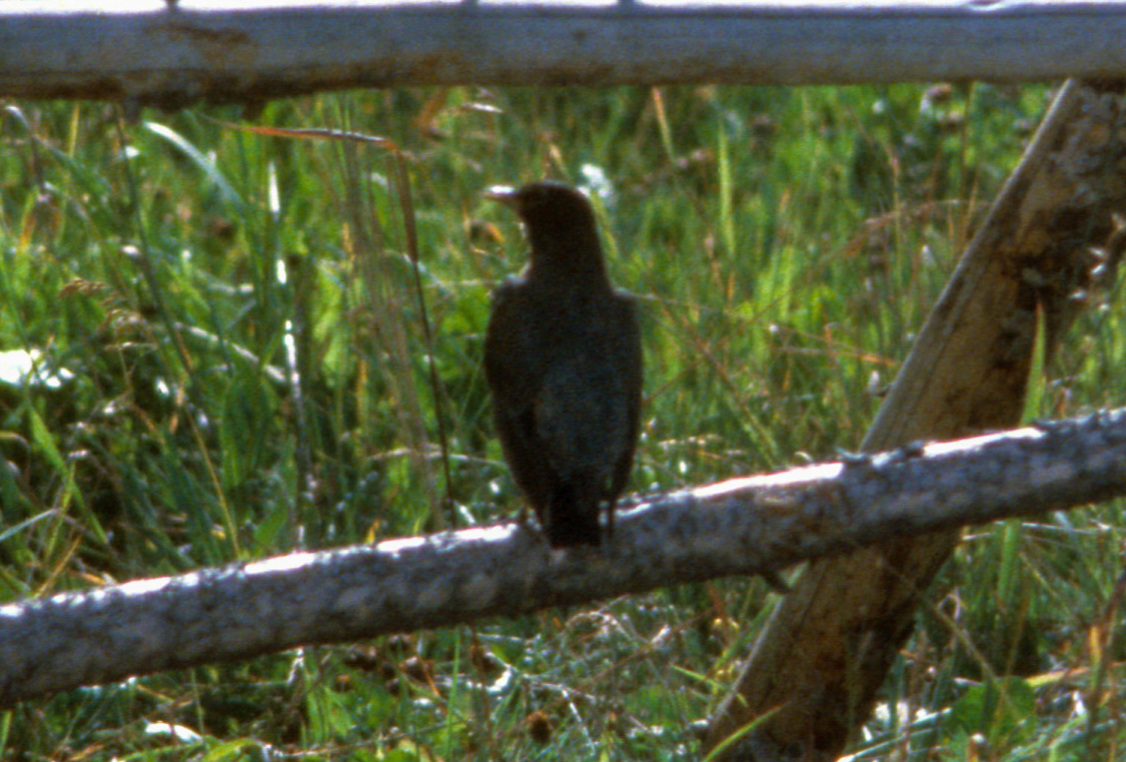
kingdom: Animalia
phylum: Chordata
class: Aves
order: Passeriformes
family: Turdidae
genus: Turdus
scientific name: Turdus migratorius
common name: American robin
